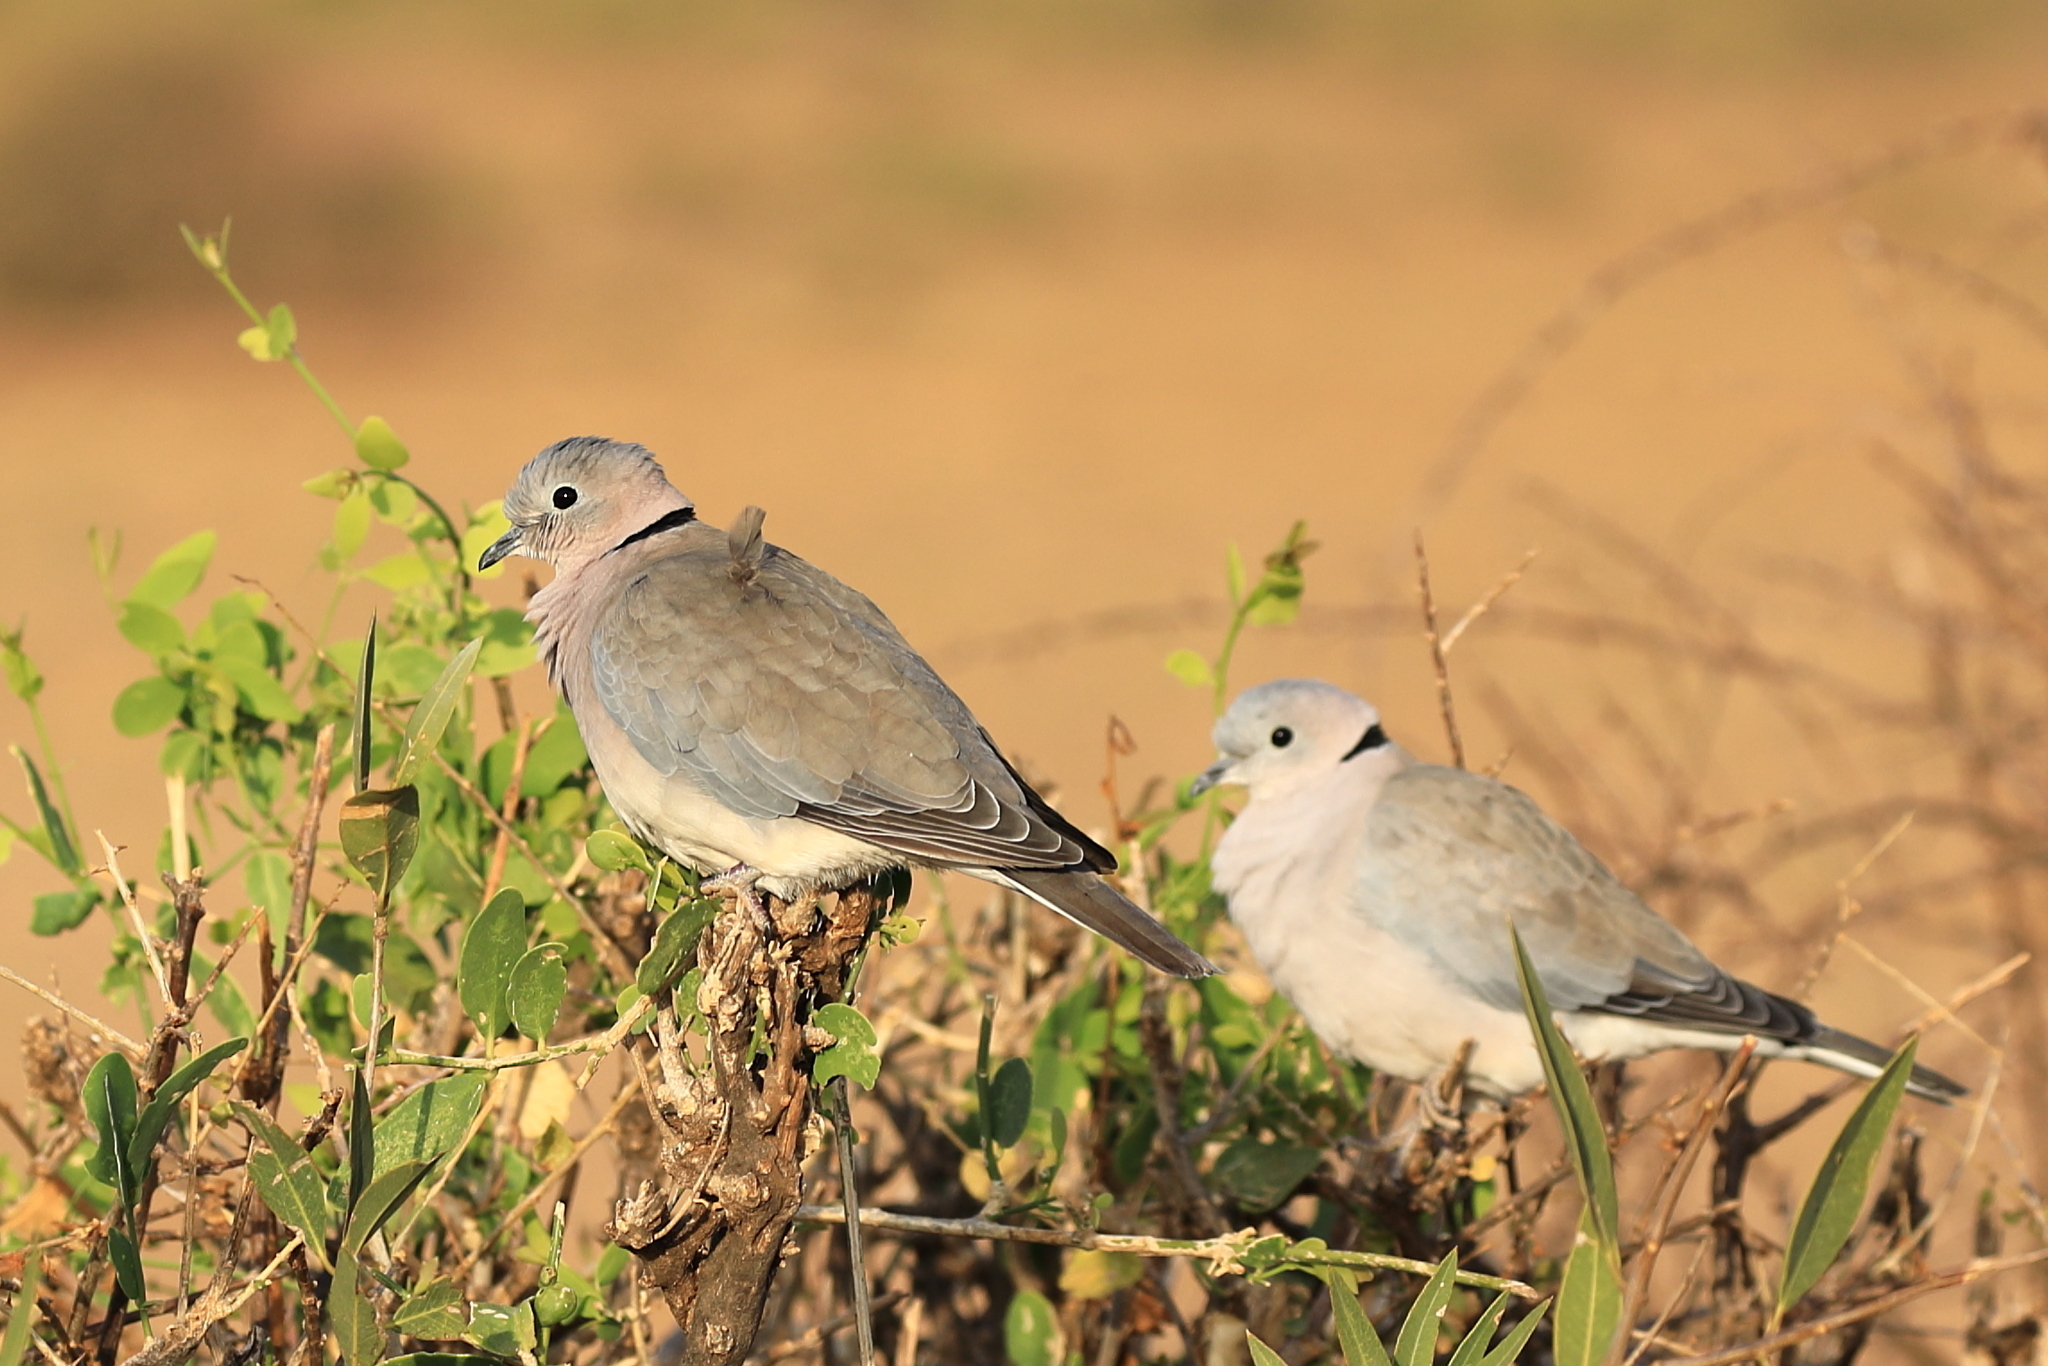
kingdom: Animalia
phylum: Chordata
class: Aves
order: Columbiformes
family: Columbidae
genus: Streptopelia
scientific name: Streptopelia capicola
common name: Ring-necked dove
